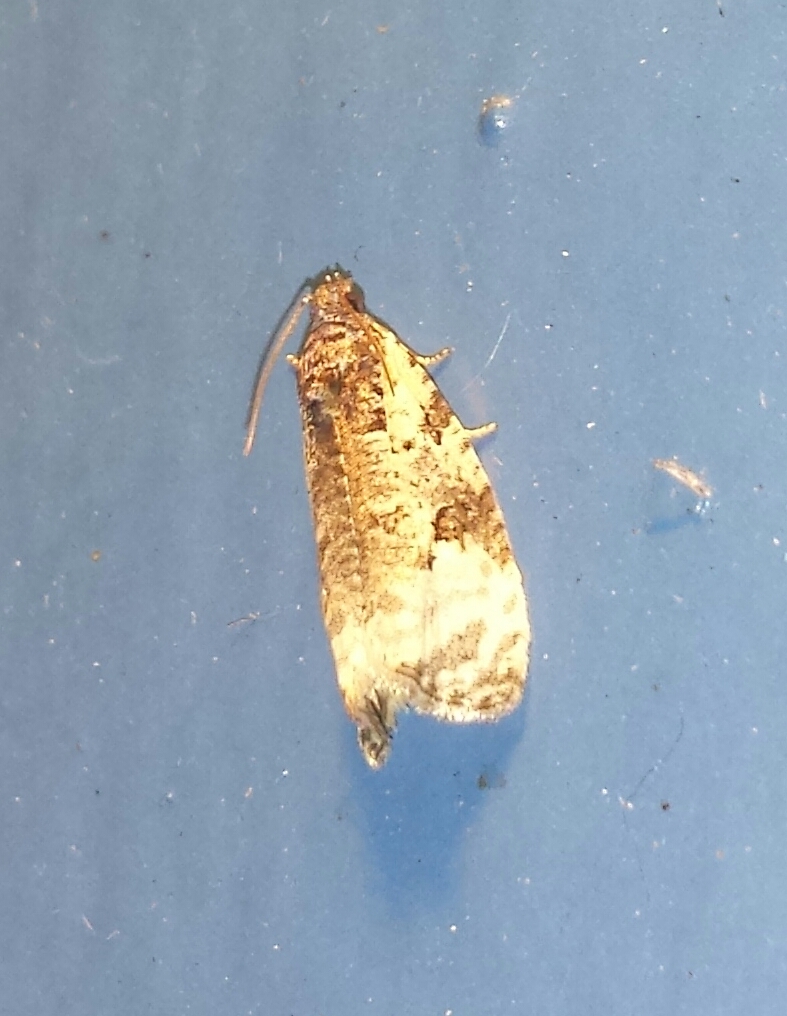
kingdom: Animalia
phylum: Arthropoda
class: Insecta
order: Lepidoptera
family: Tortricidae
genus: Apotomis
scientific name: Apotomis albeolana
